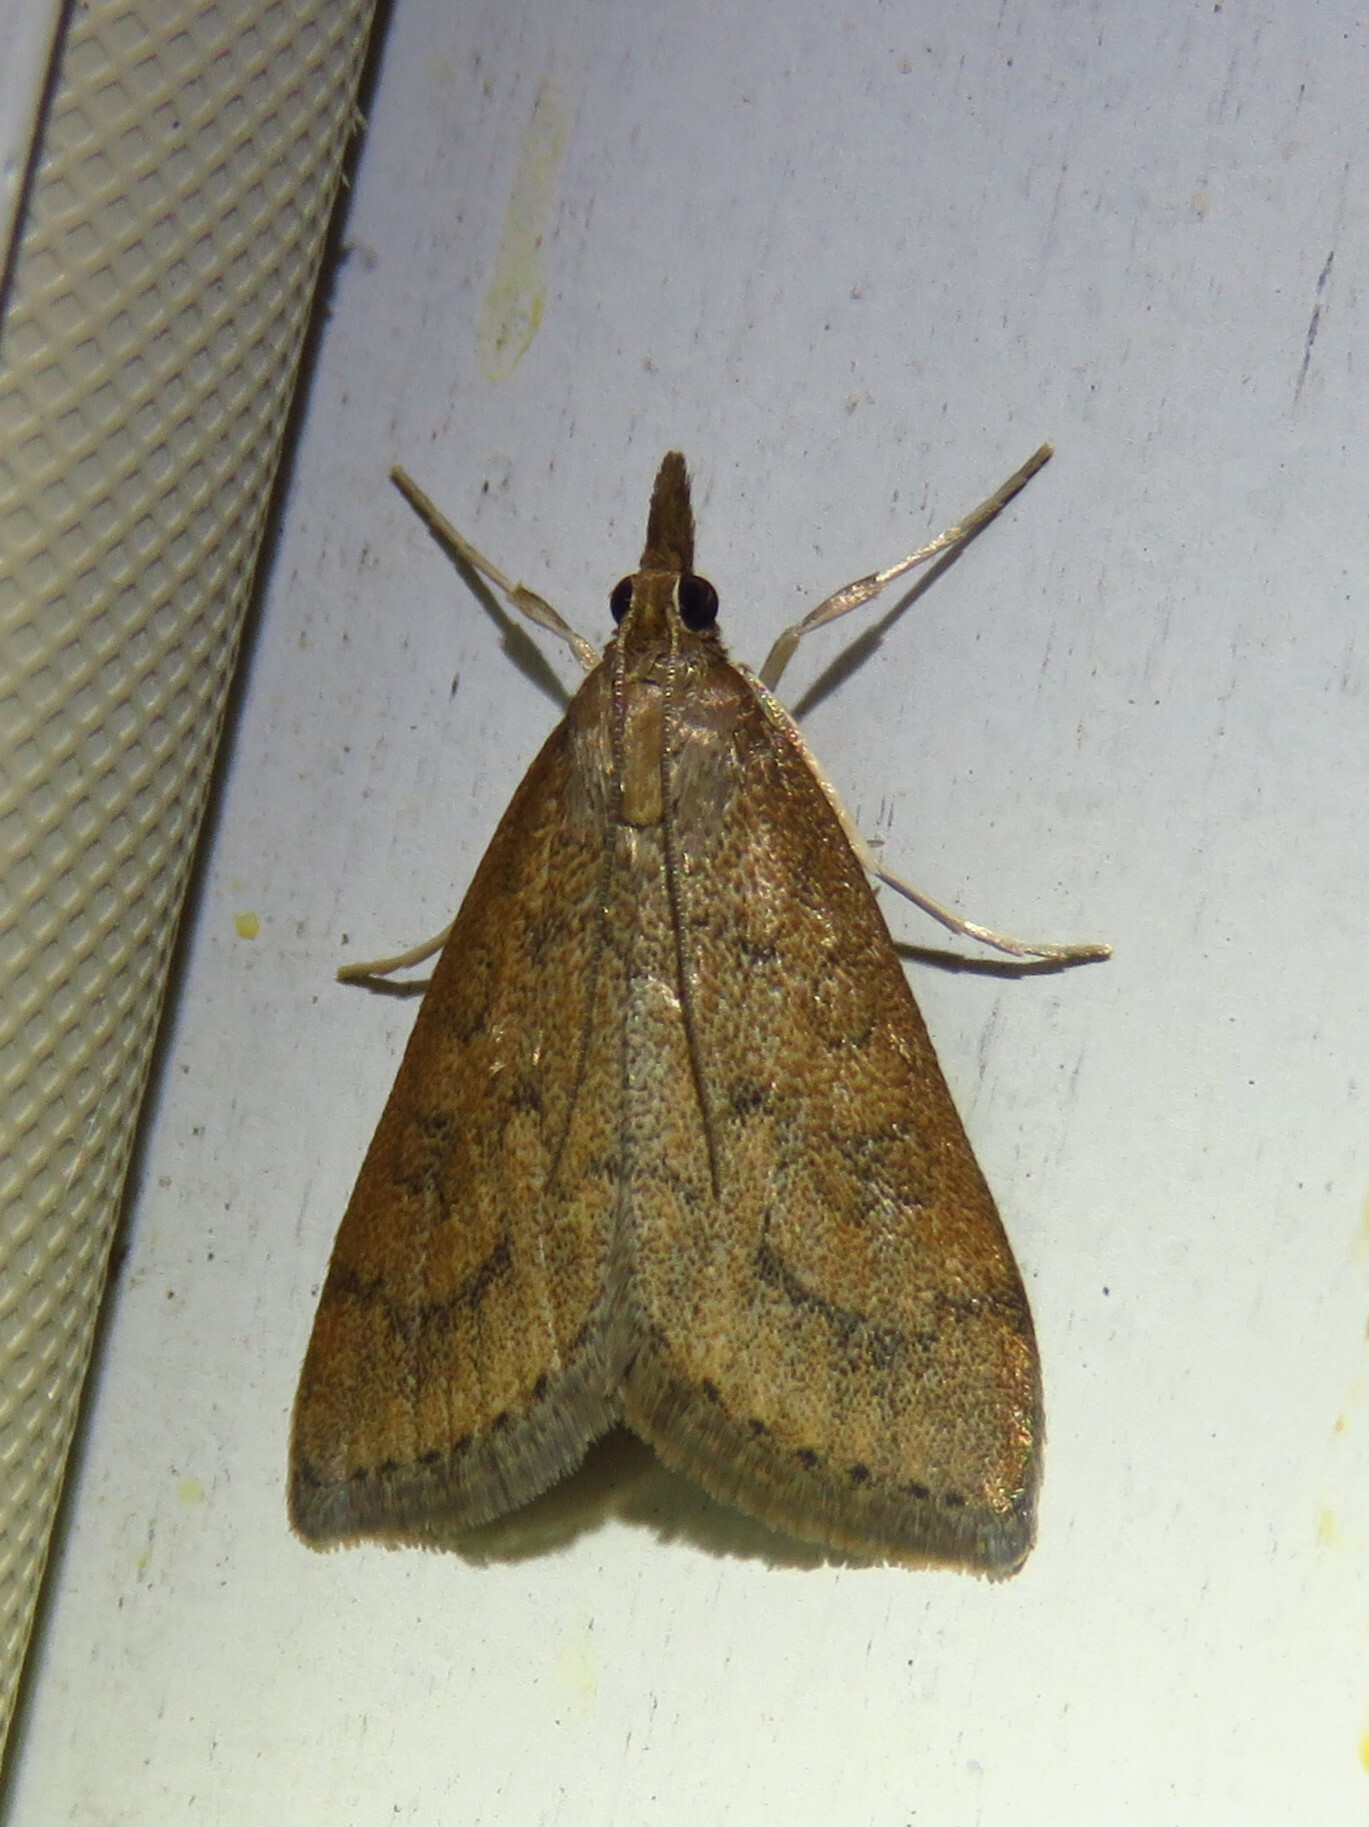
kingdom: Animalia
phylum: Arthropoda
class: Insecta
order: Lepidoptera
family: Crambidae
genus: Udea
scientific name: Udea rubigalis
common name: Celery leaftier moth
